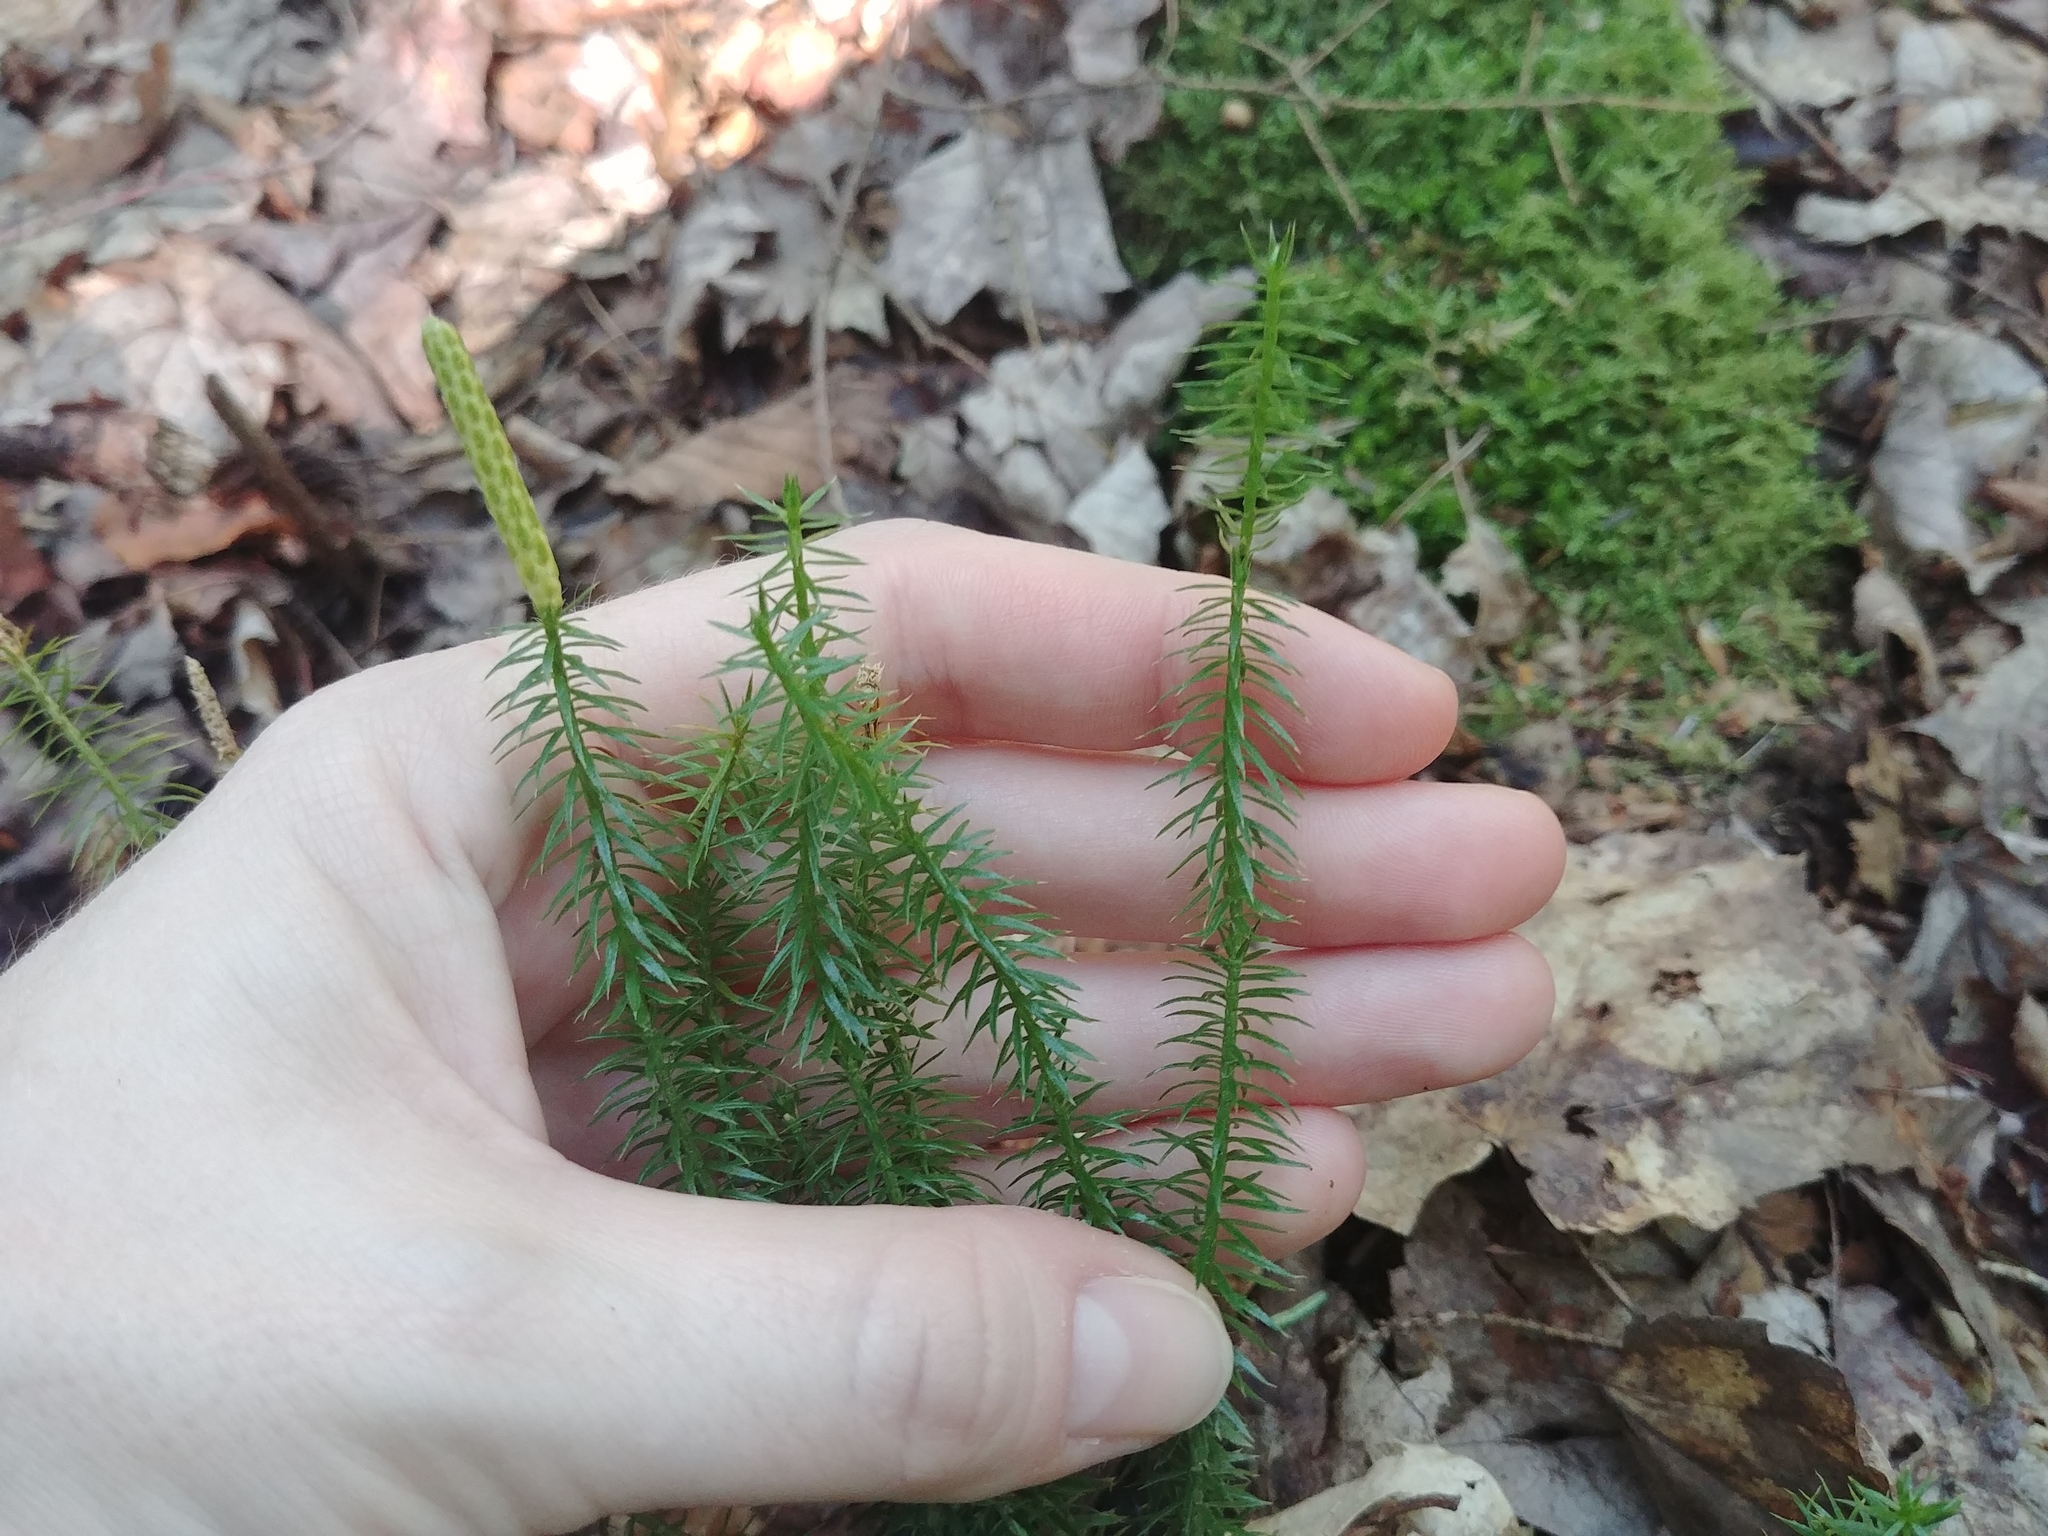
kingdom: Plantae
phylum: Tracheophyta
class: Lycopodiopsida
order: Lycopodiales
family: Lycopodiaceae
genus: Spinulum
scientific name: Spinulum annotinum
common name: Interrupted club-moss
